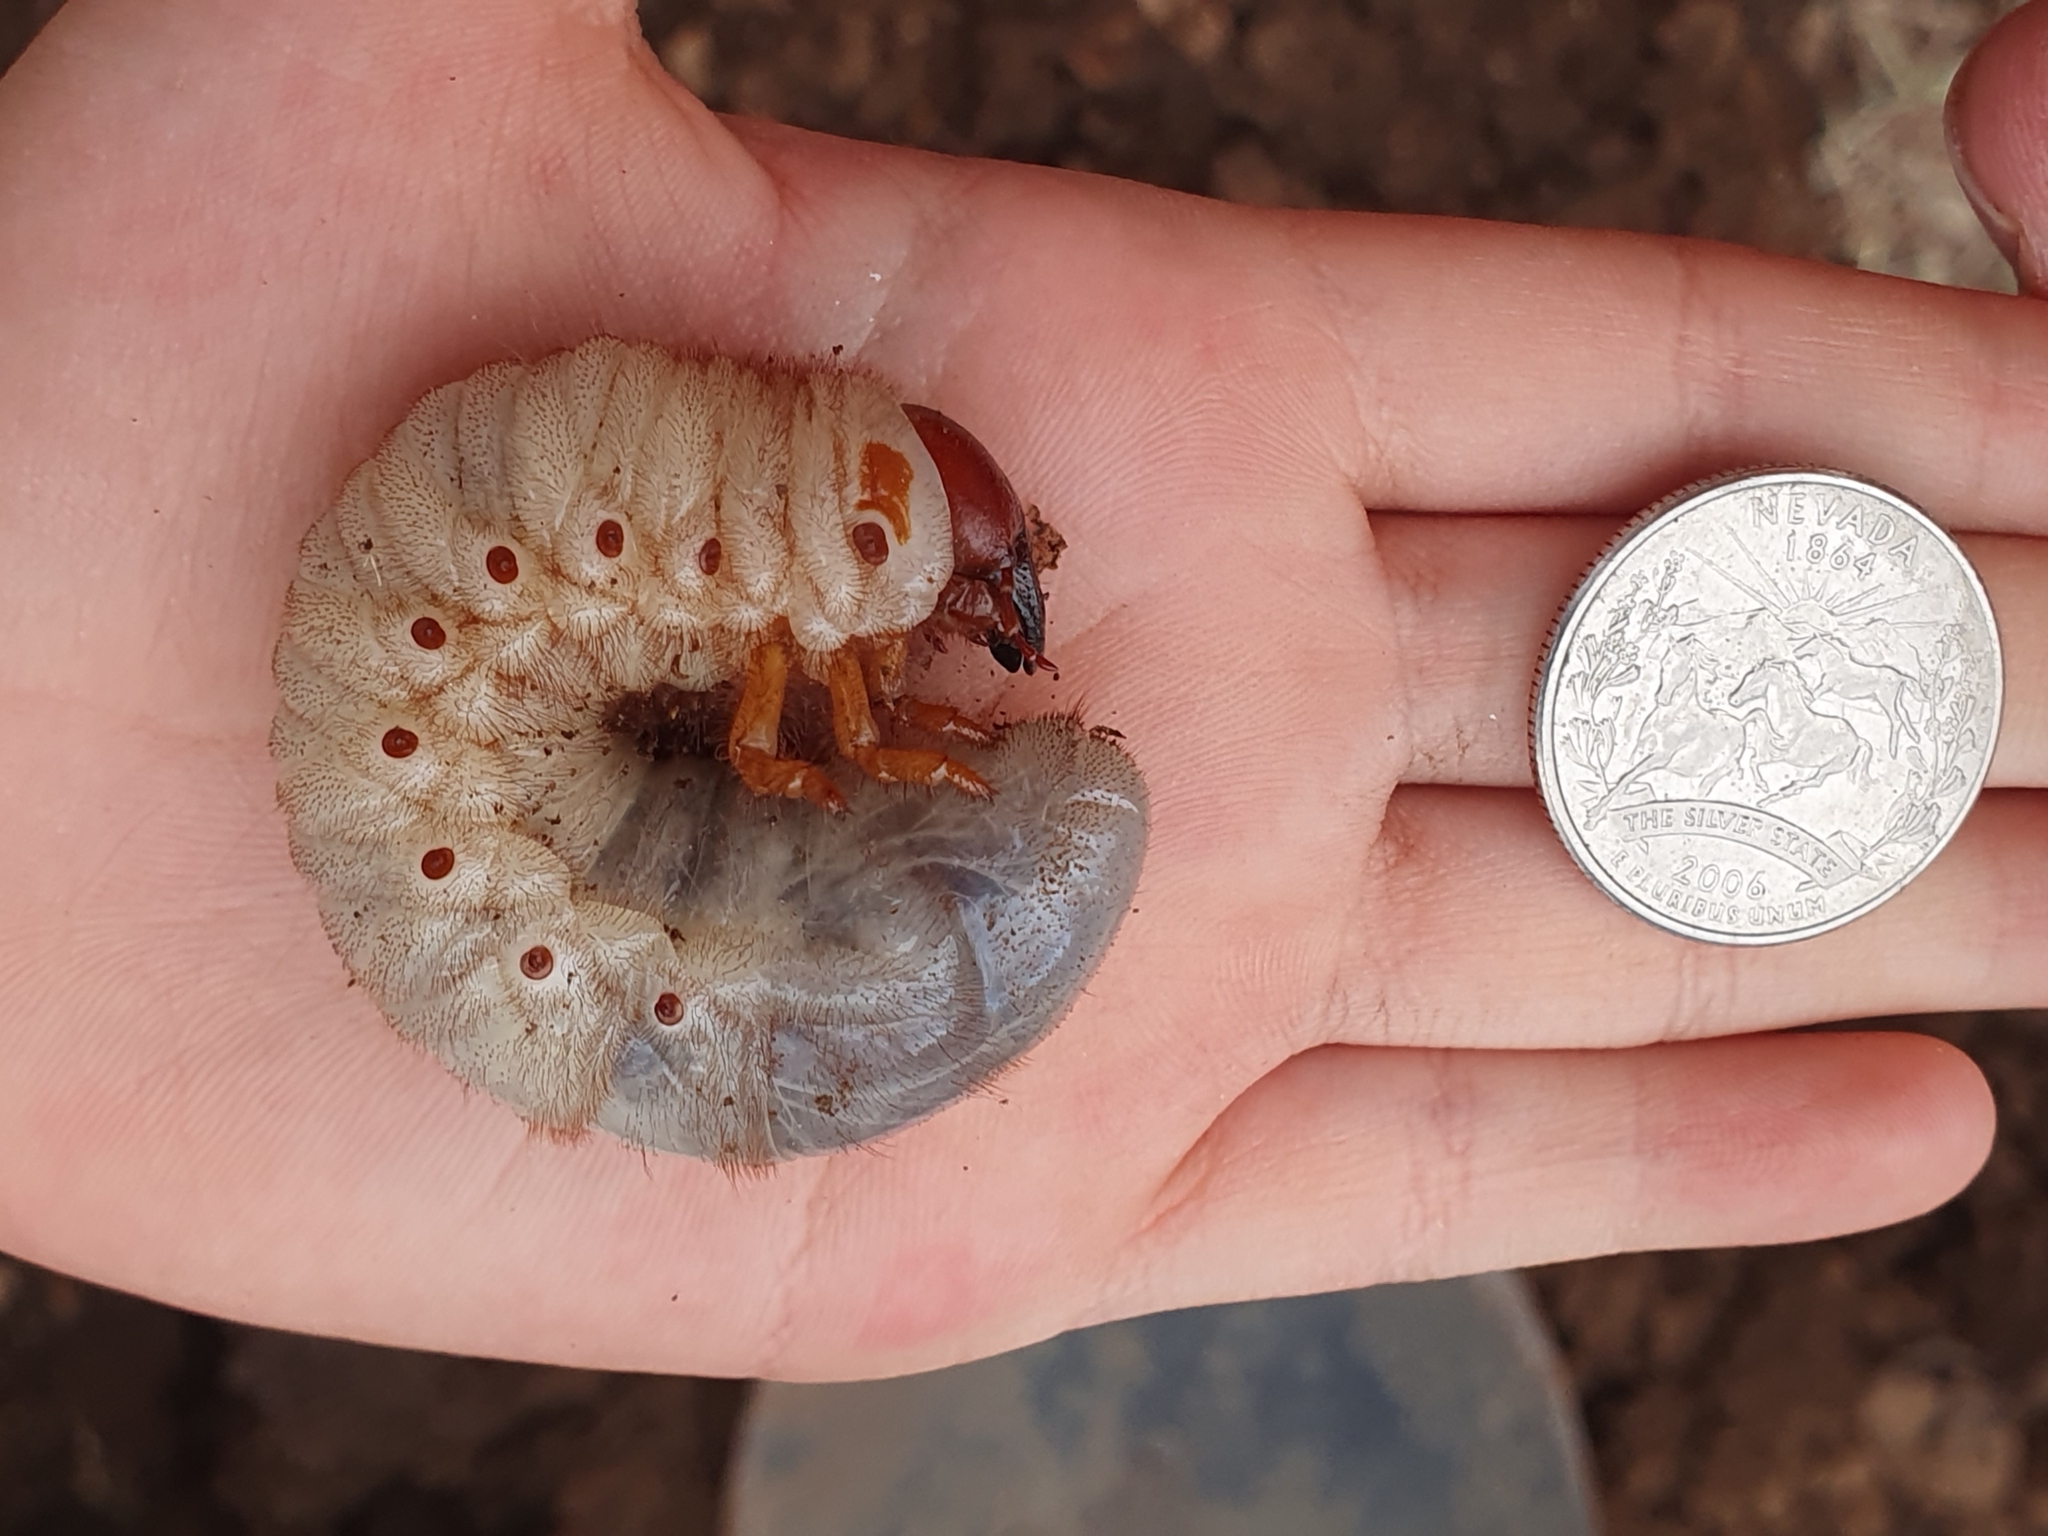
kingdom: Animalia
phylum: Arthropoda
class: Insecta
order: Coleoptera
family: Scarabaeidae
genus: Strategus
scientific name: Strategus aloeus
